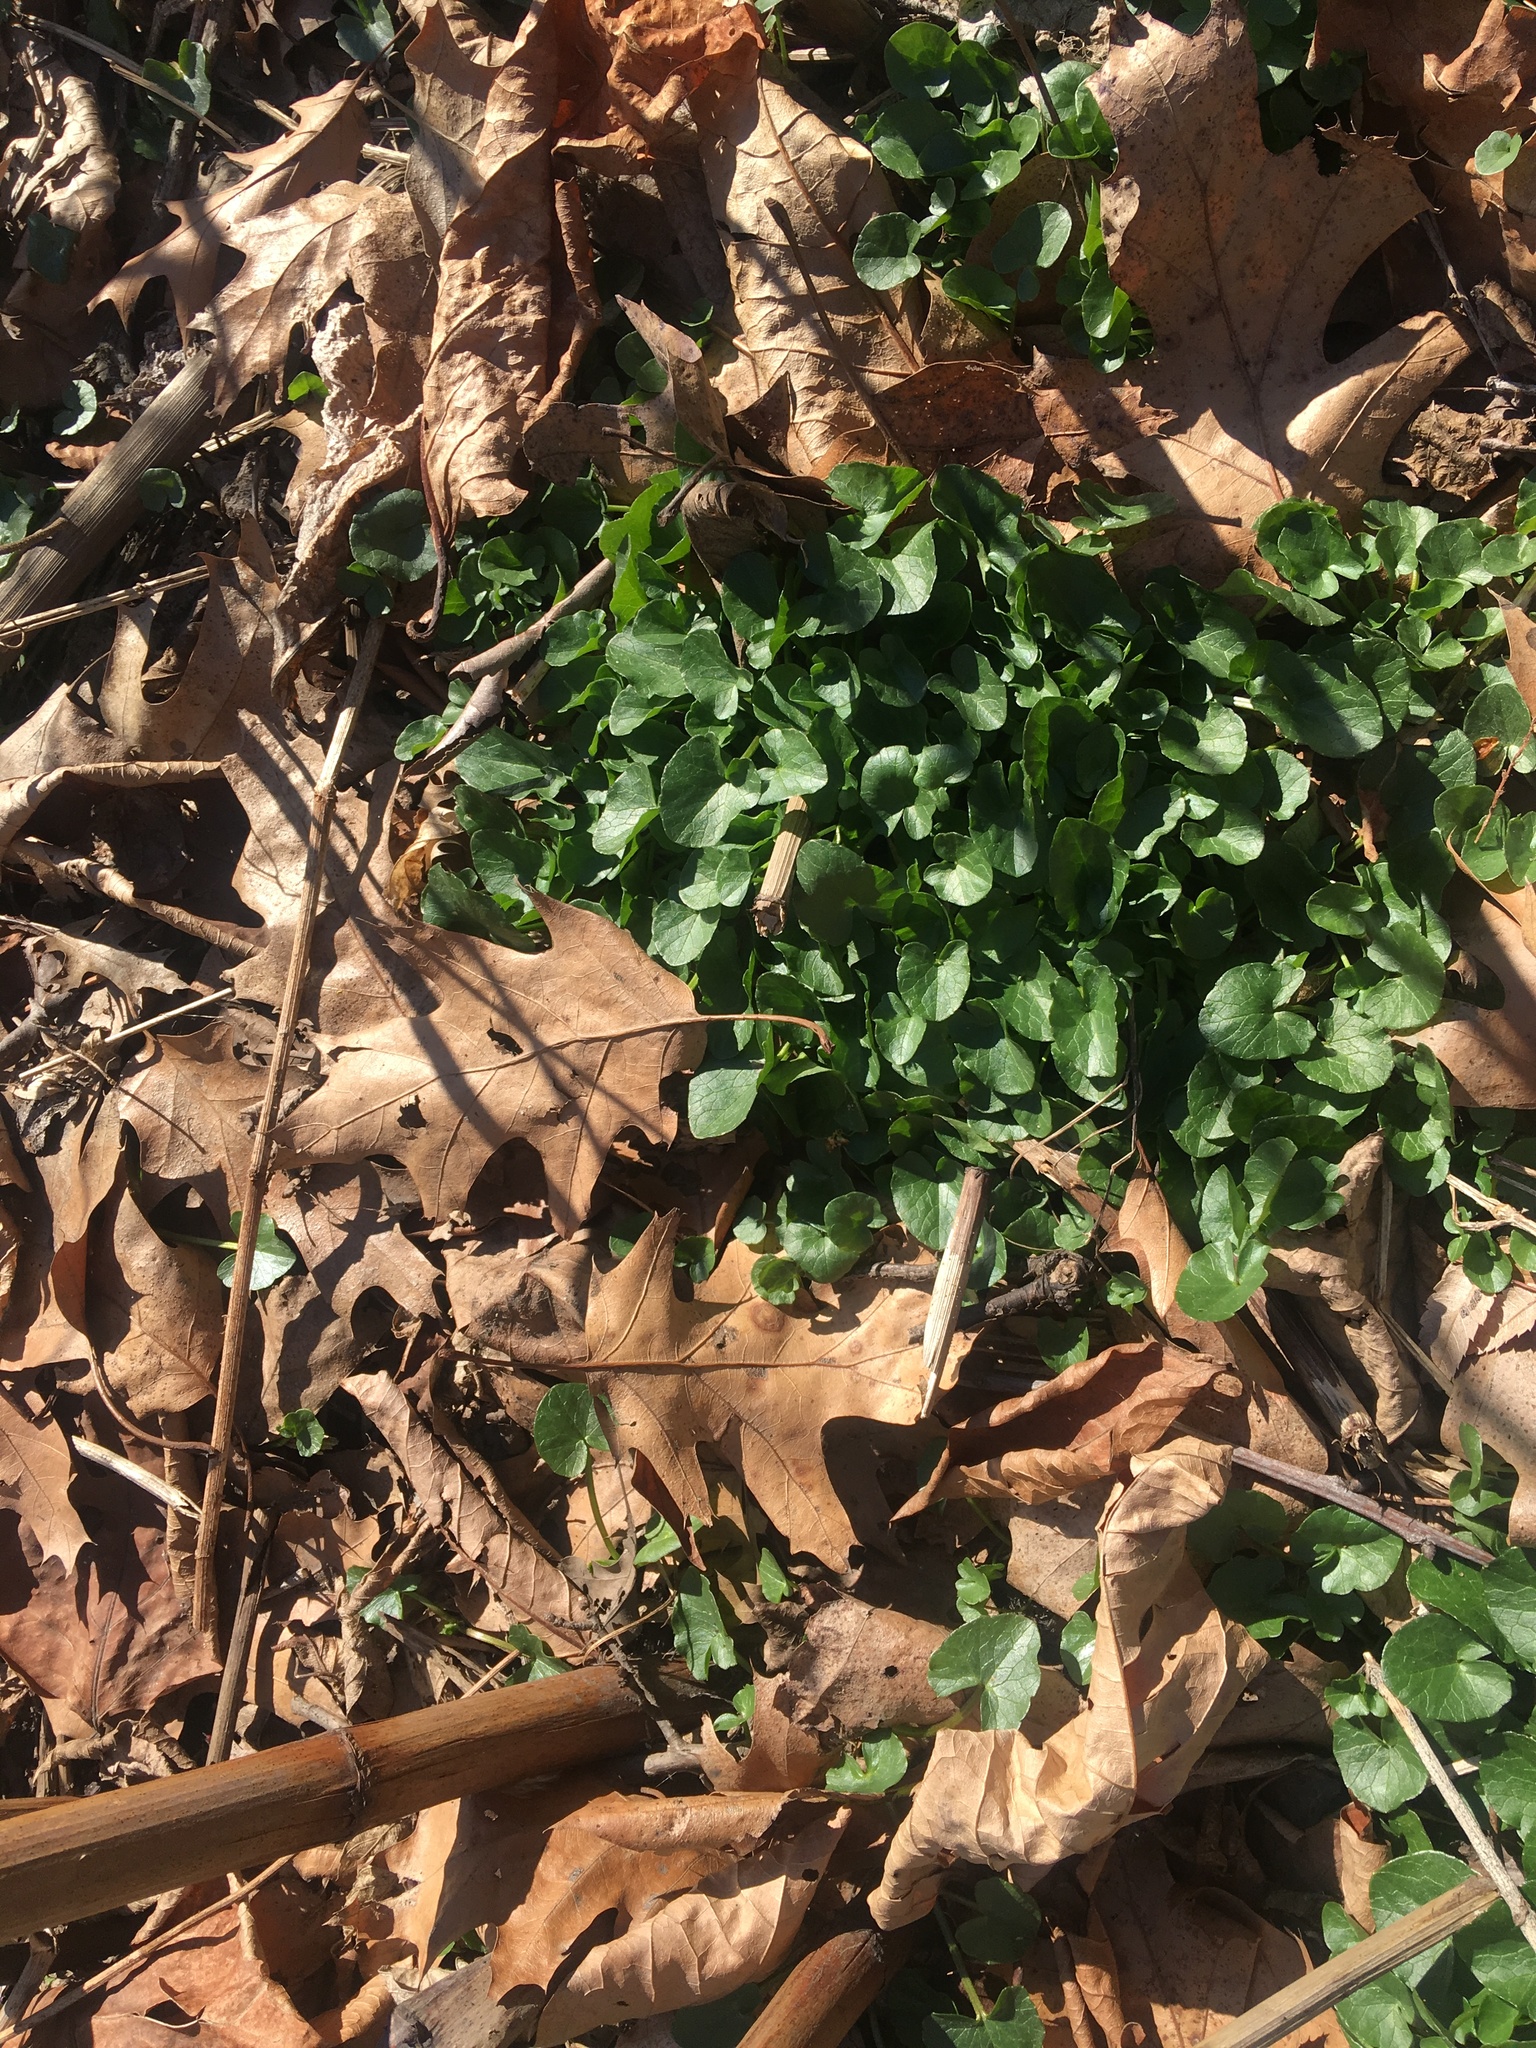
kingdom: Plantae
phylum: Tracheophyta
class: Magnoliopsida
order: Ranunculales
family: Ranunculaceae
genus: Ficaria
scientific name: Ficaria verna
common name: Lesser celandine
